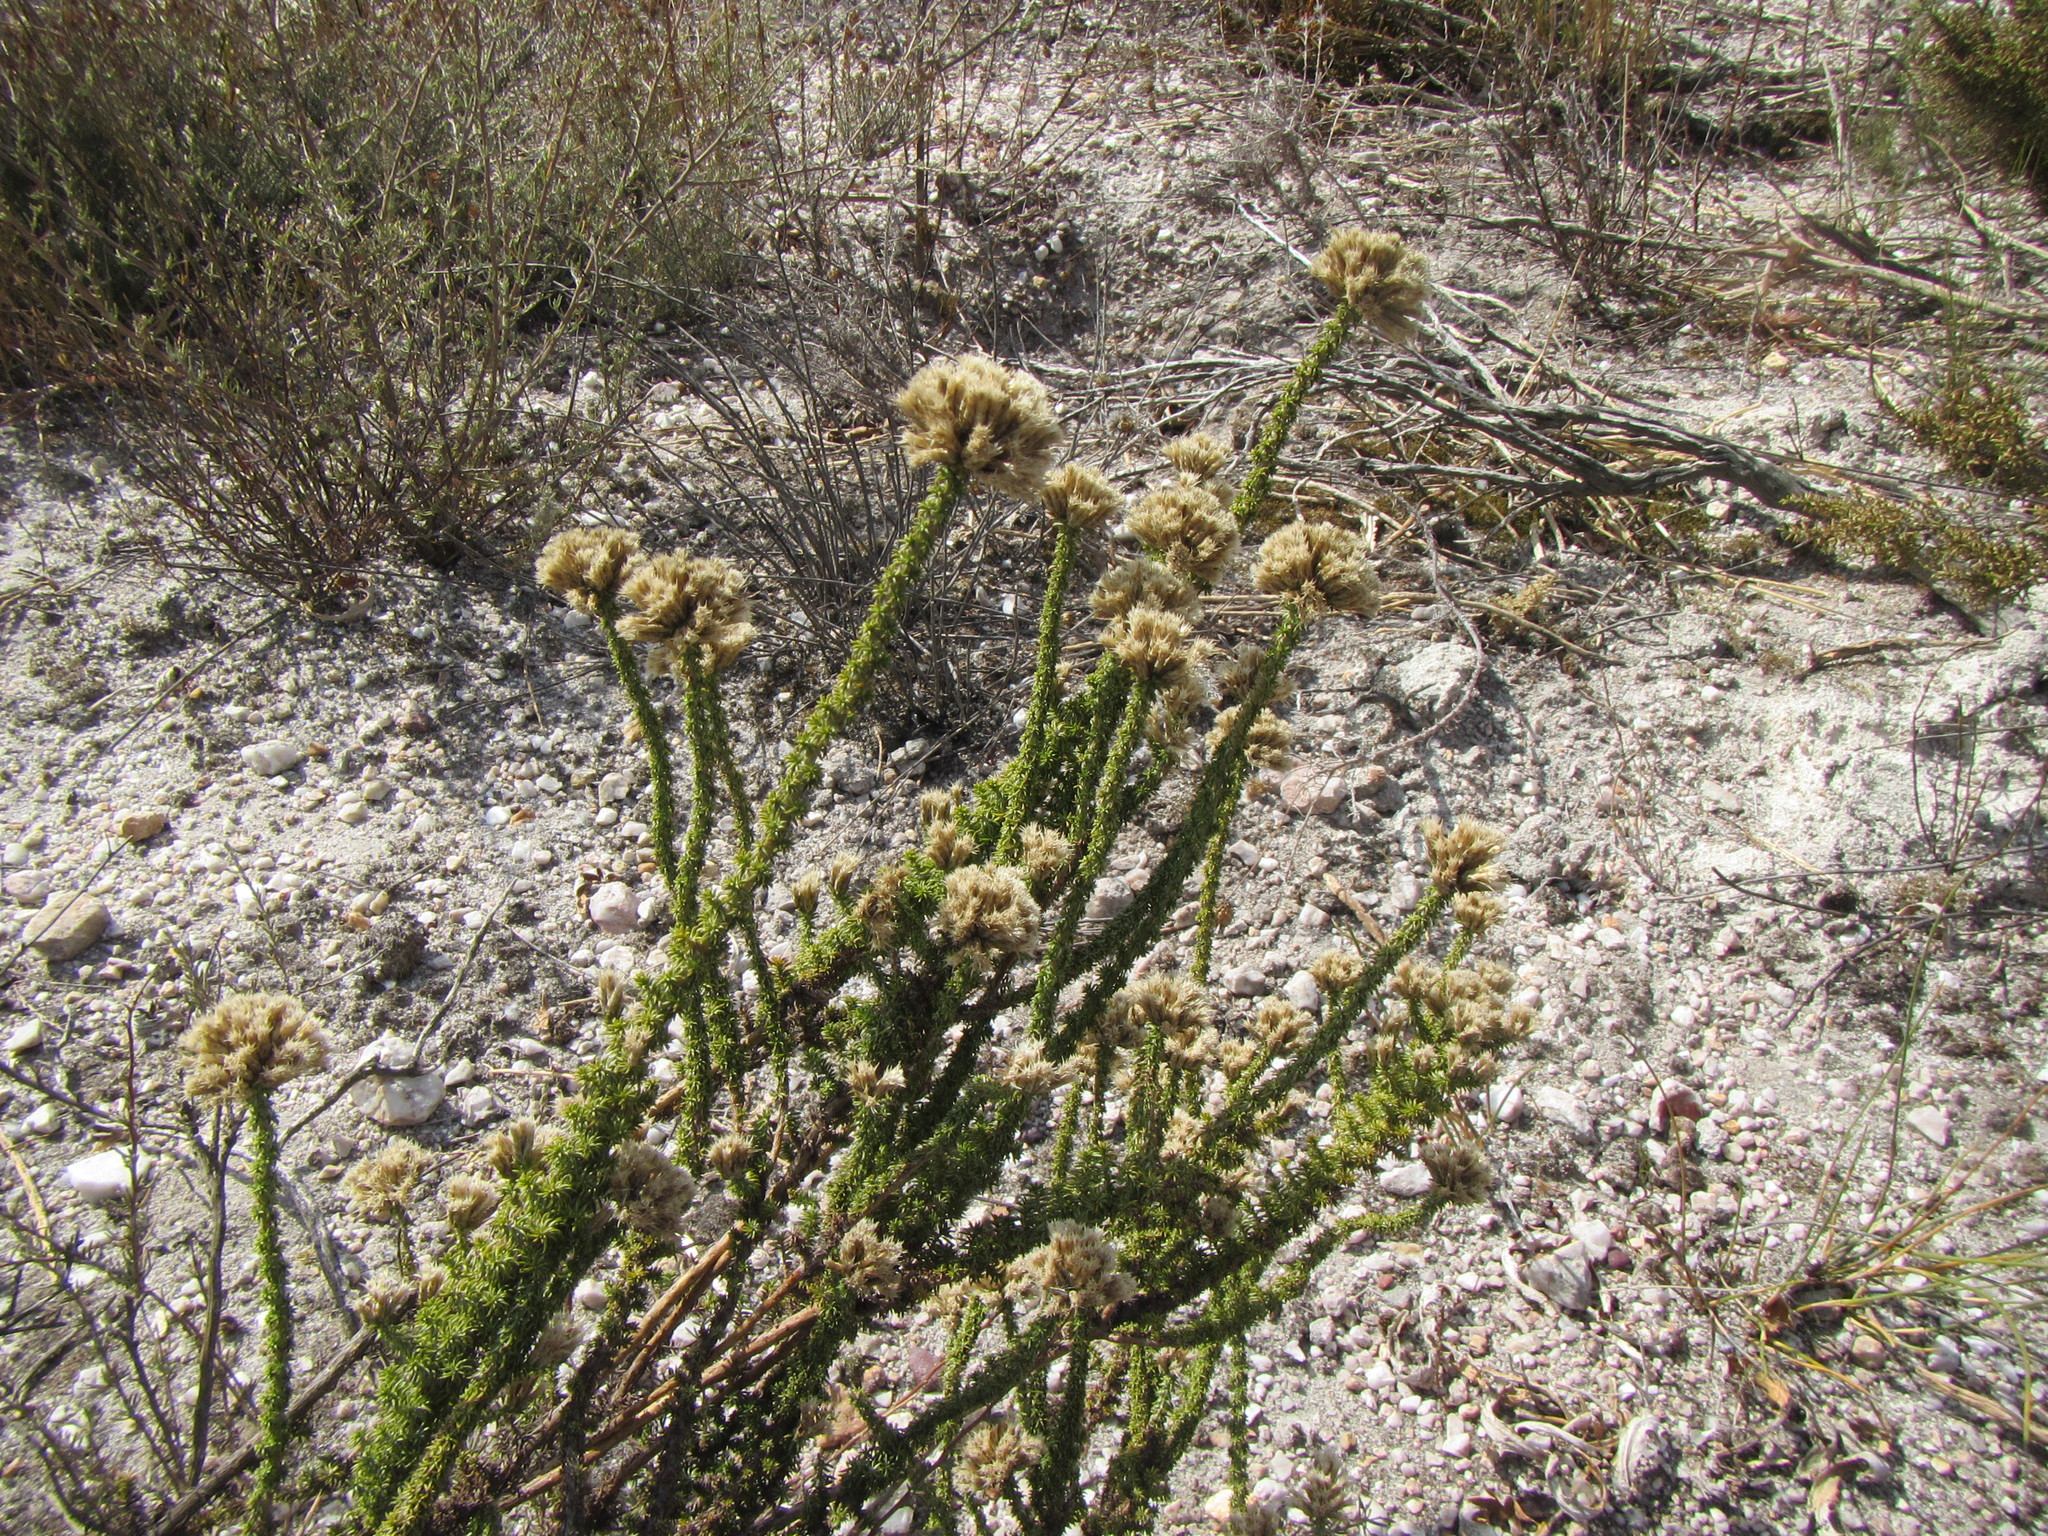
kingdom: Plantae
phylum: Tracheophyta
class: Magnoliopsida
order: Asterales
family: Asteraceae
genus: Planea
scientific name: Planea schlechteri
